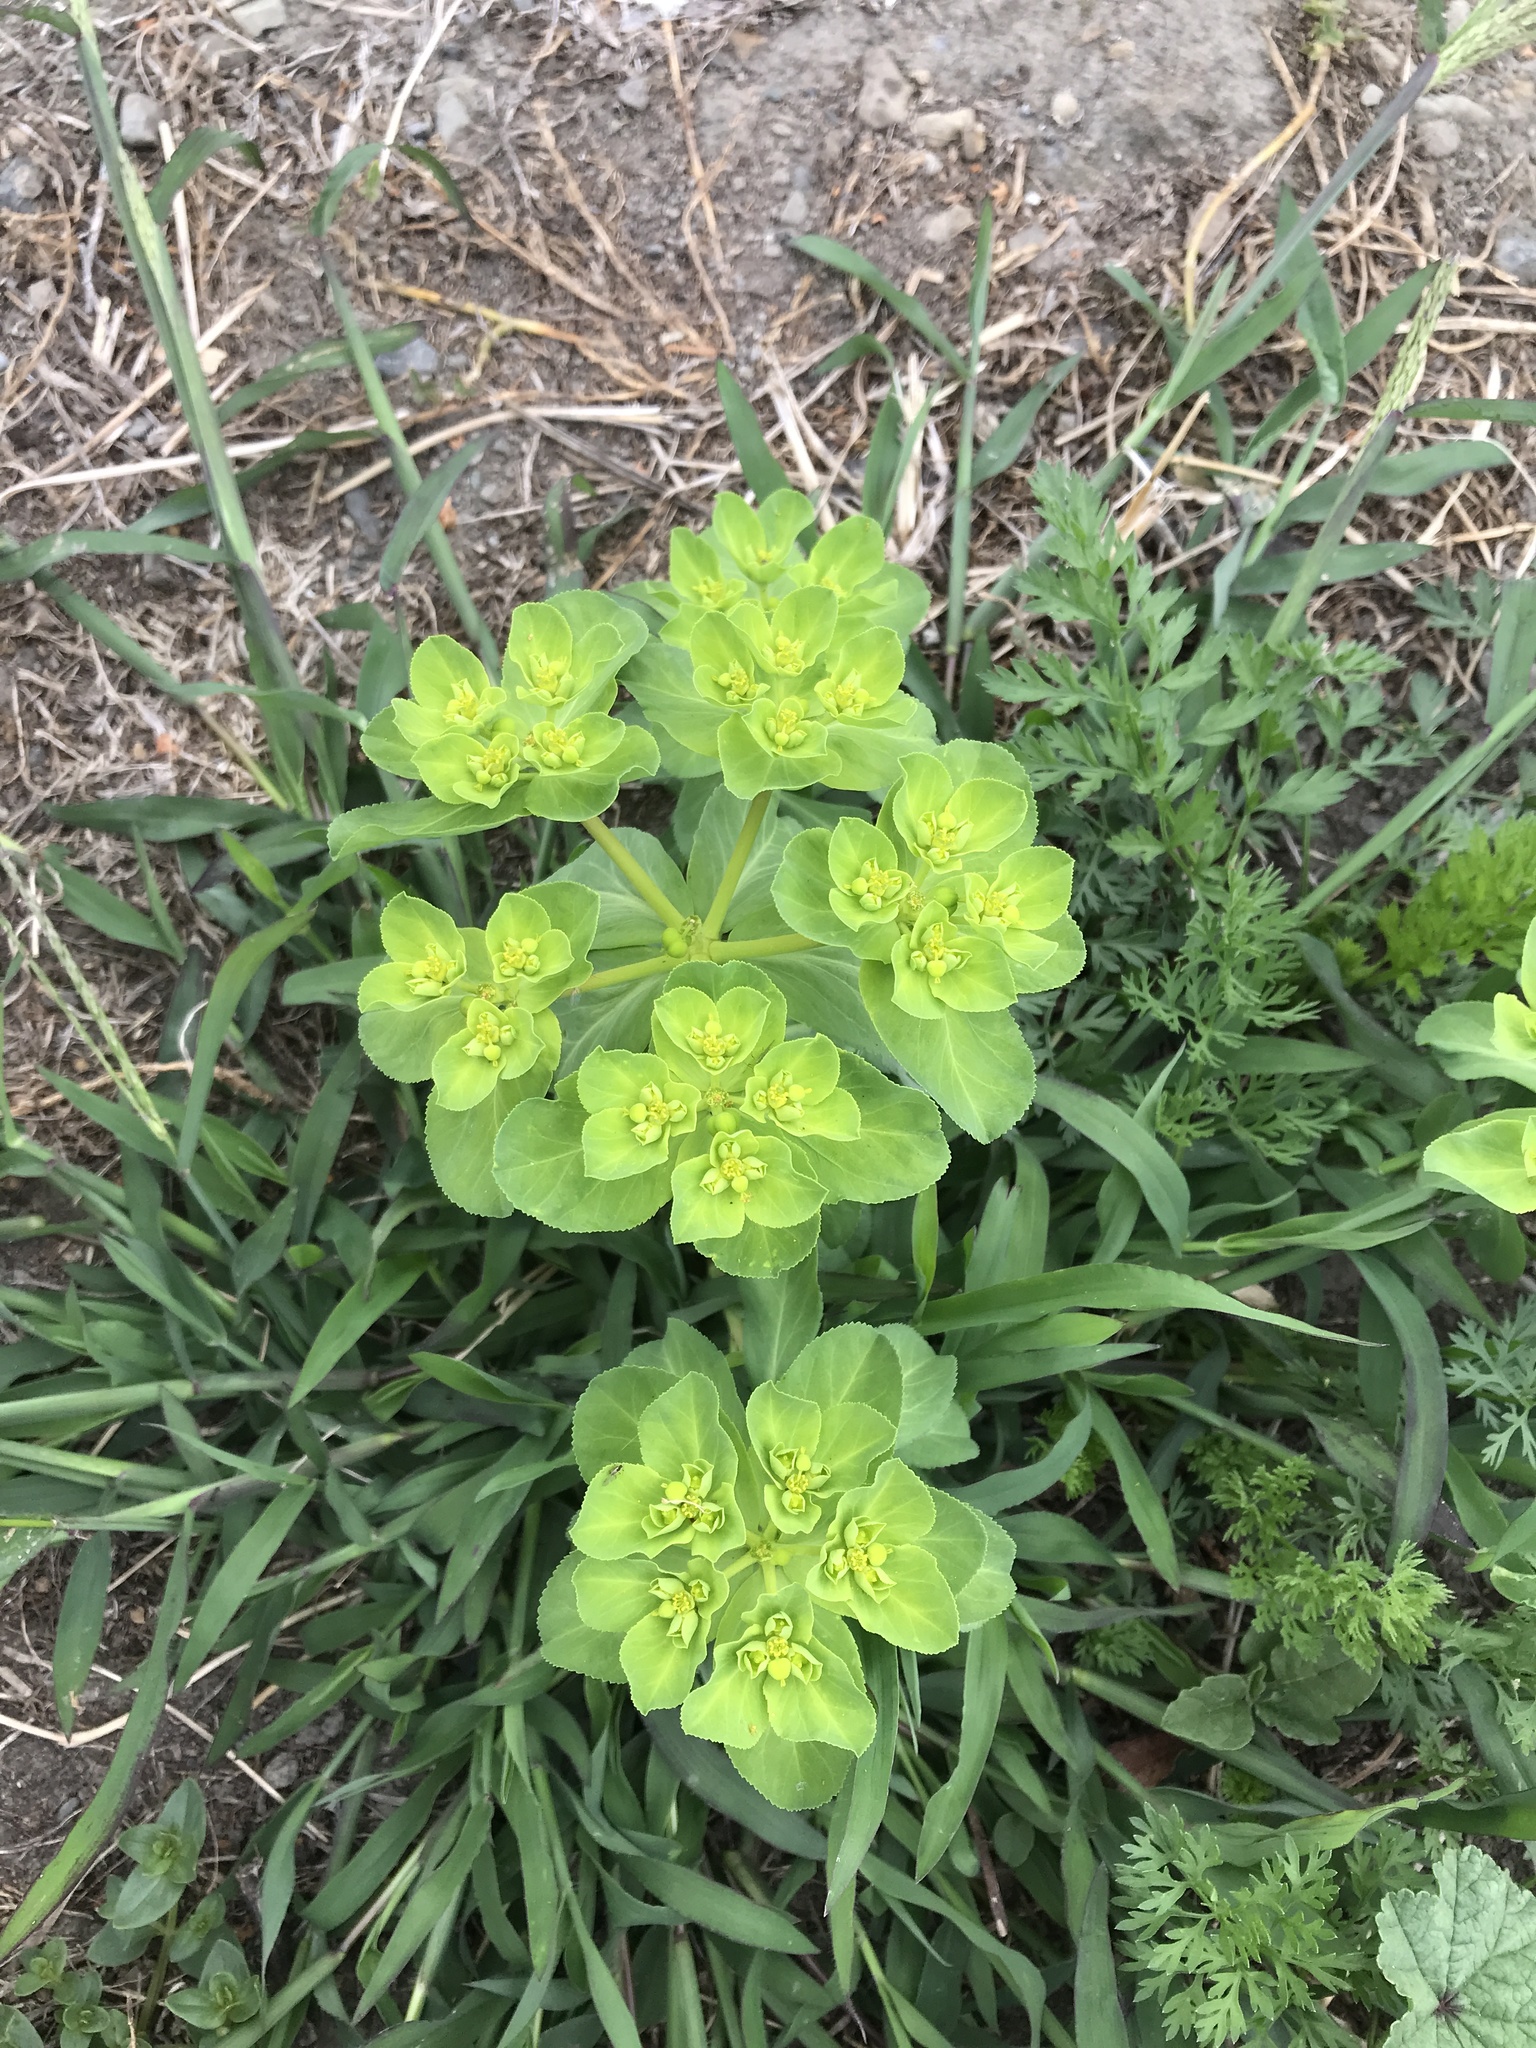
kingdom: Plantae
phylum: Tracheophyta
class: Magnoliopsida
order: Malpighiales
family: Euphorbiaceae
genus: Euphorbia
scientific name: Euphorbia helioscopia
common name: Sun spurge
